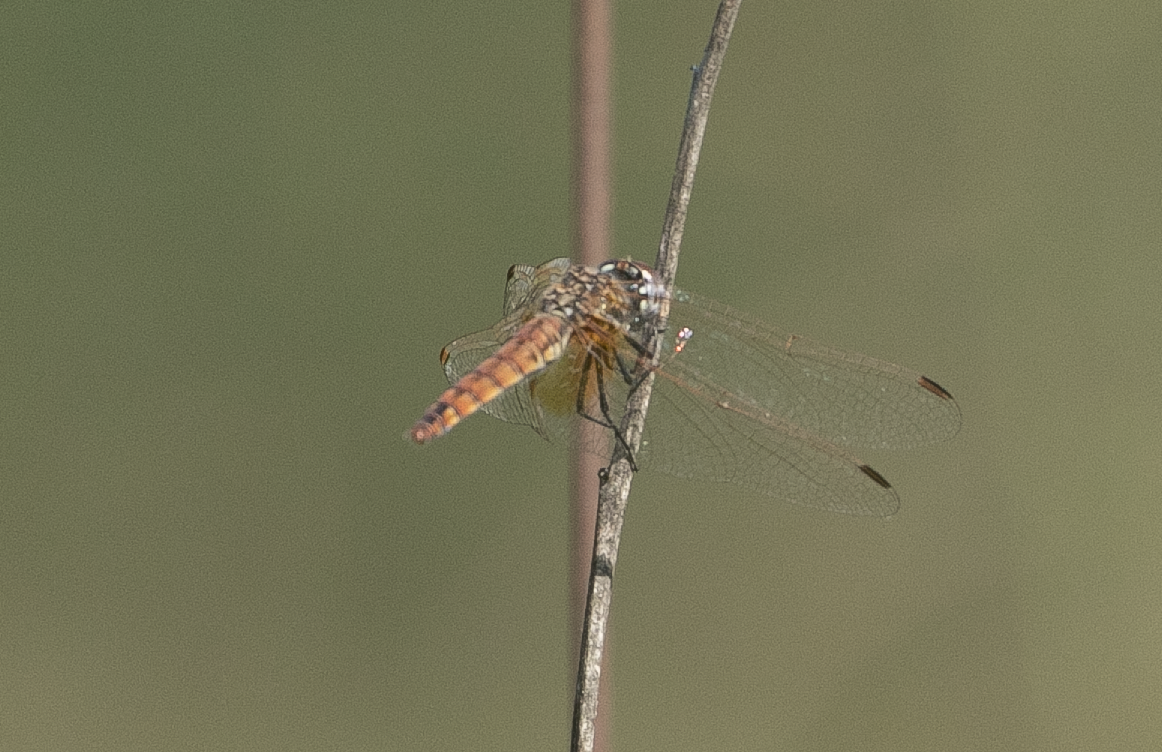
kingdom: Animalia
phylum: Arthropoda
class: Insecta
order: Odonata
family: Libellulidae
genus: Trithemis
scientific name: Trithemis annulata
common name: Violet dropwing
